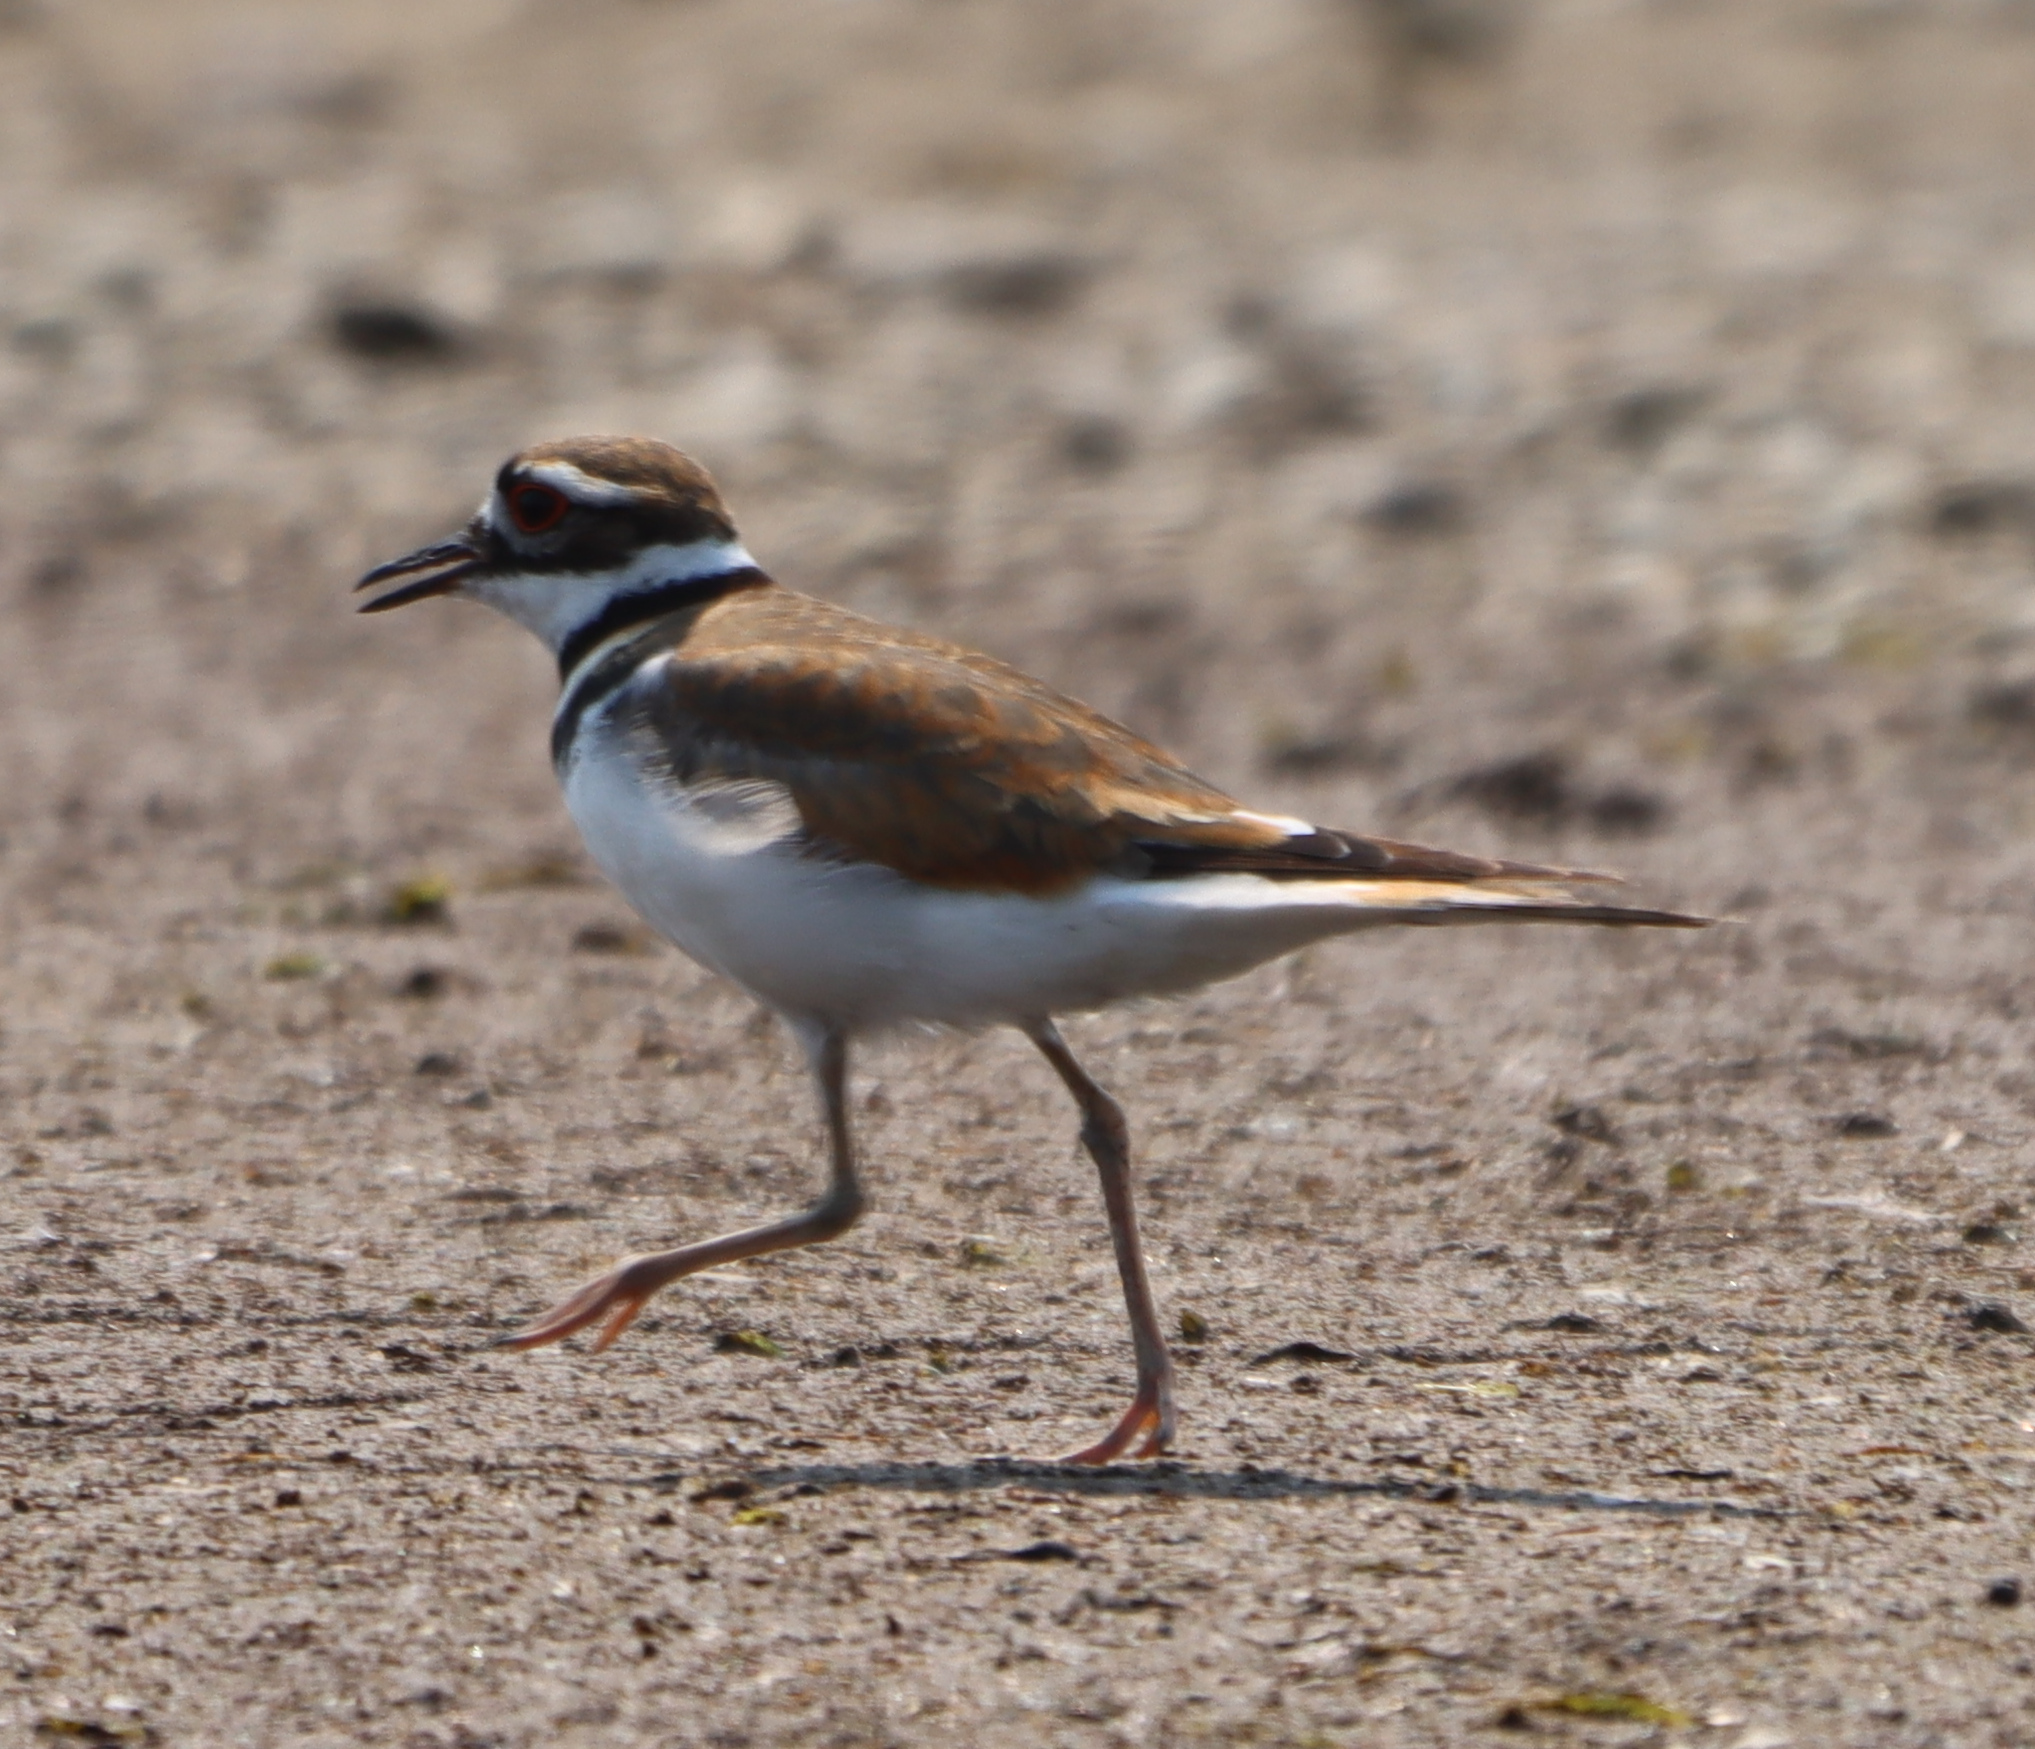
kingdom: Animalia
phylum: Chordata
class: Aves
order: Charadriiformes
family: Charadriidae
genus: Charadrius
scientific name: Charadrius vociferus
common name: Killdeer
